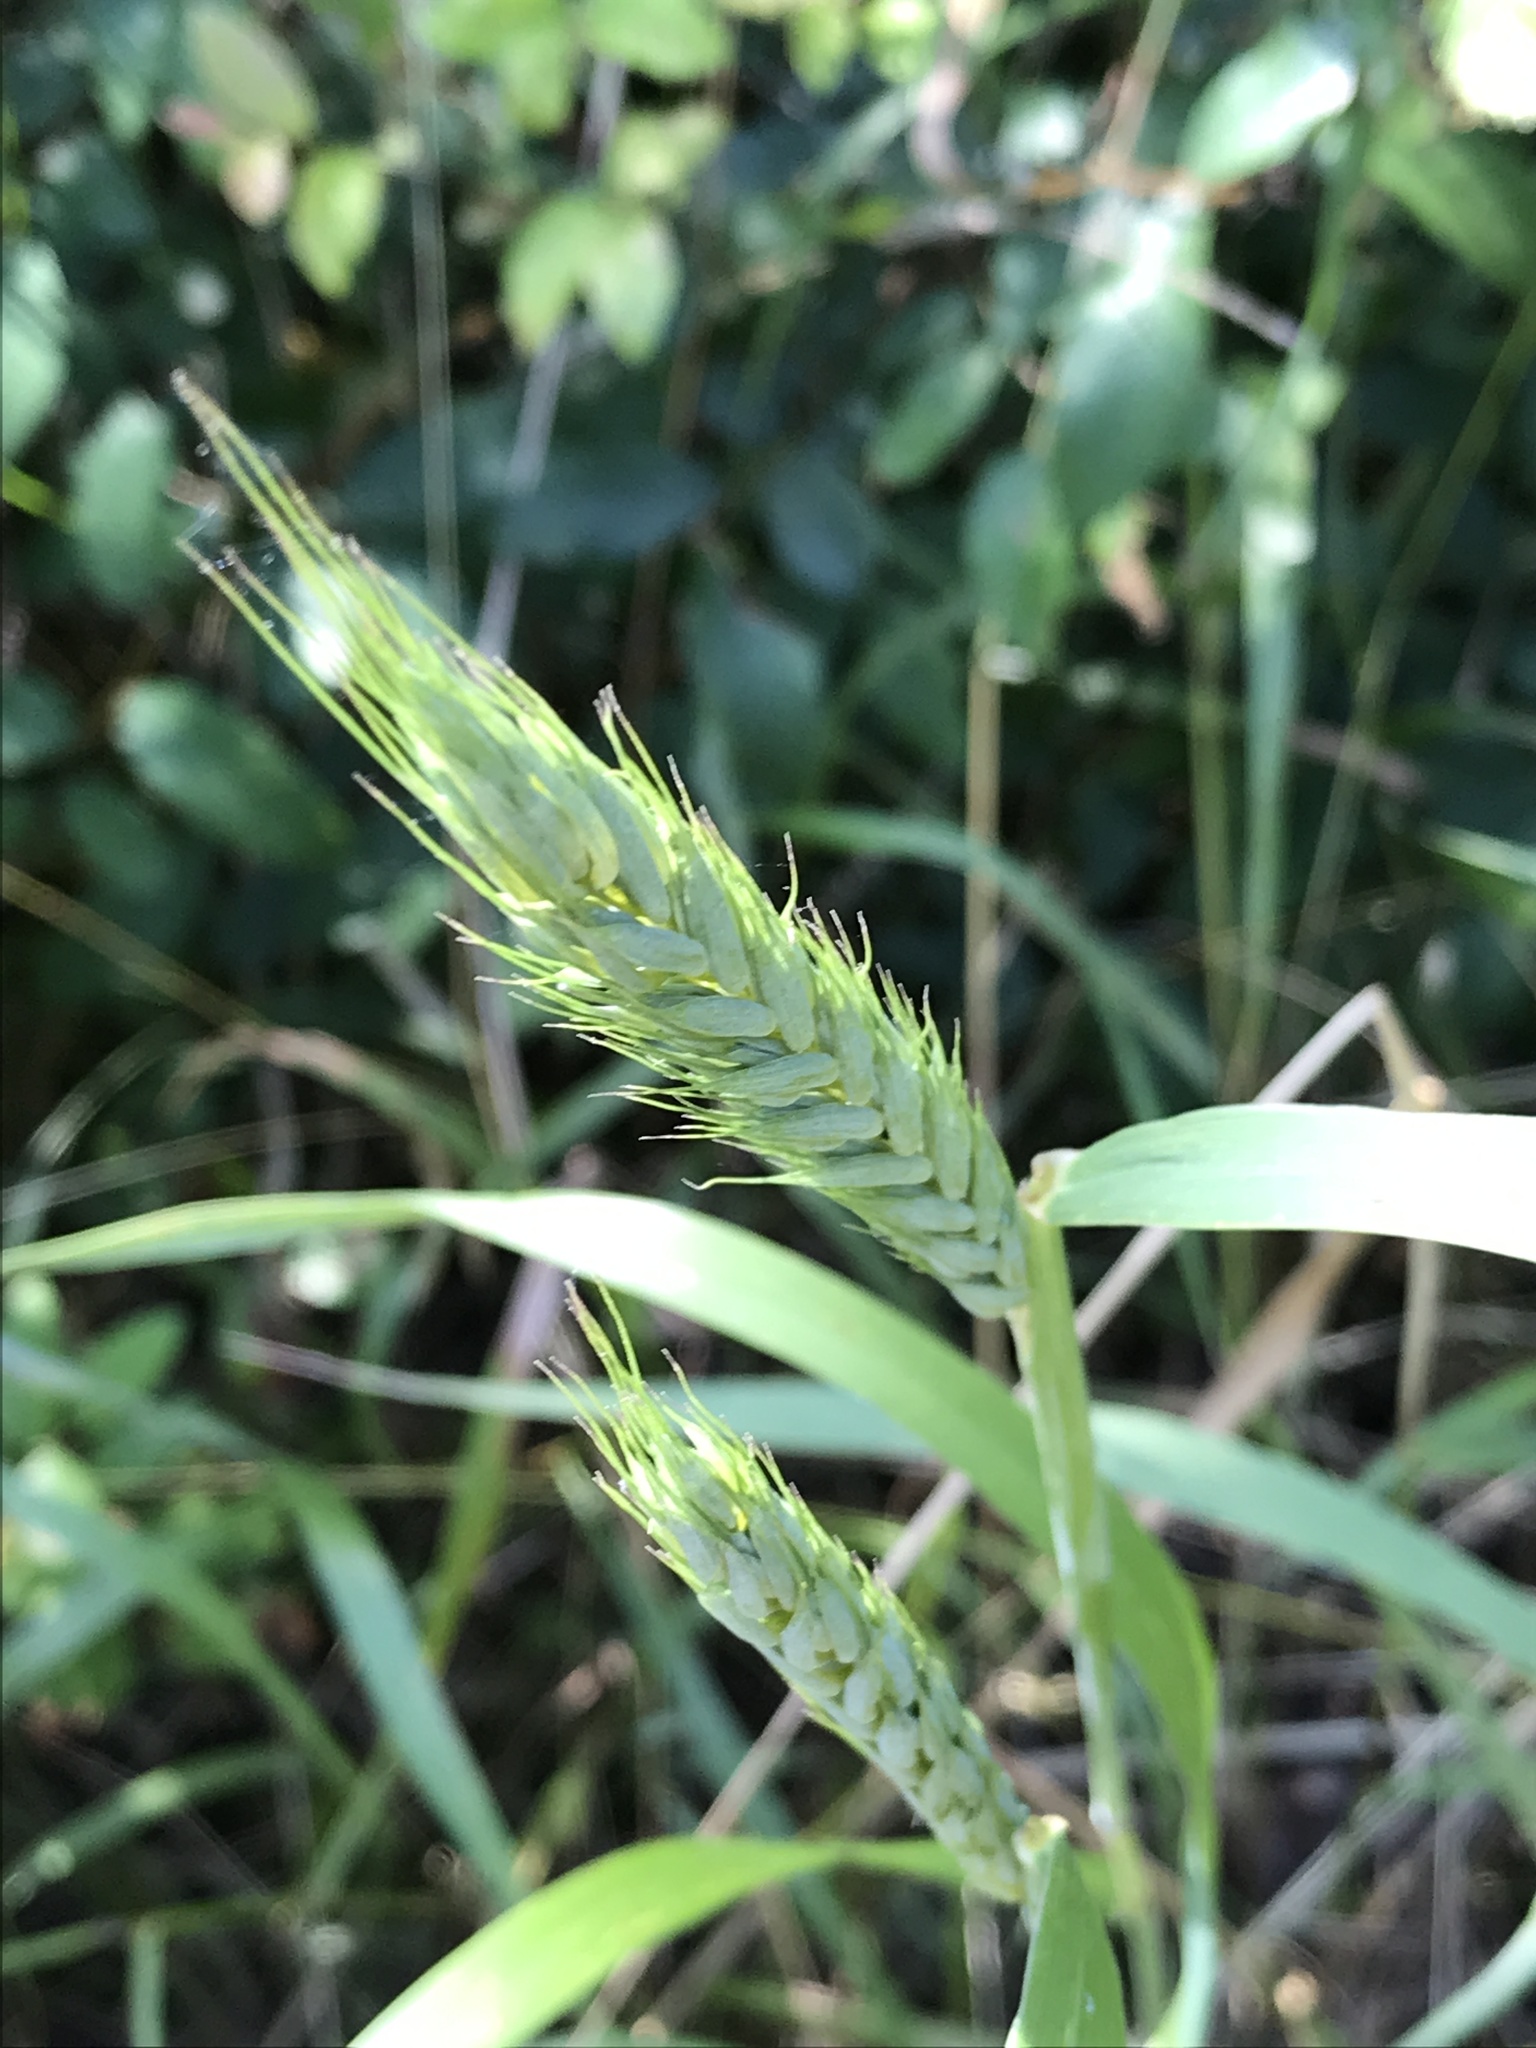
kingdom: Plantae
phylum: Tracheophyta
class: Liliopsida
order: Poales
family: Poaceae
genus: Elymus
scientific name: Elymus virginicus
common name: Common eastern wildrye
